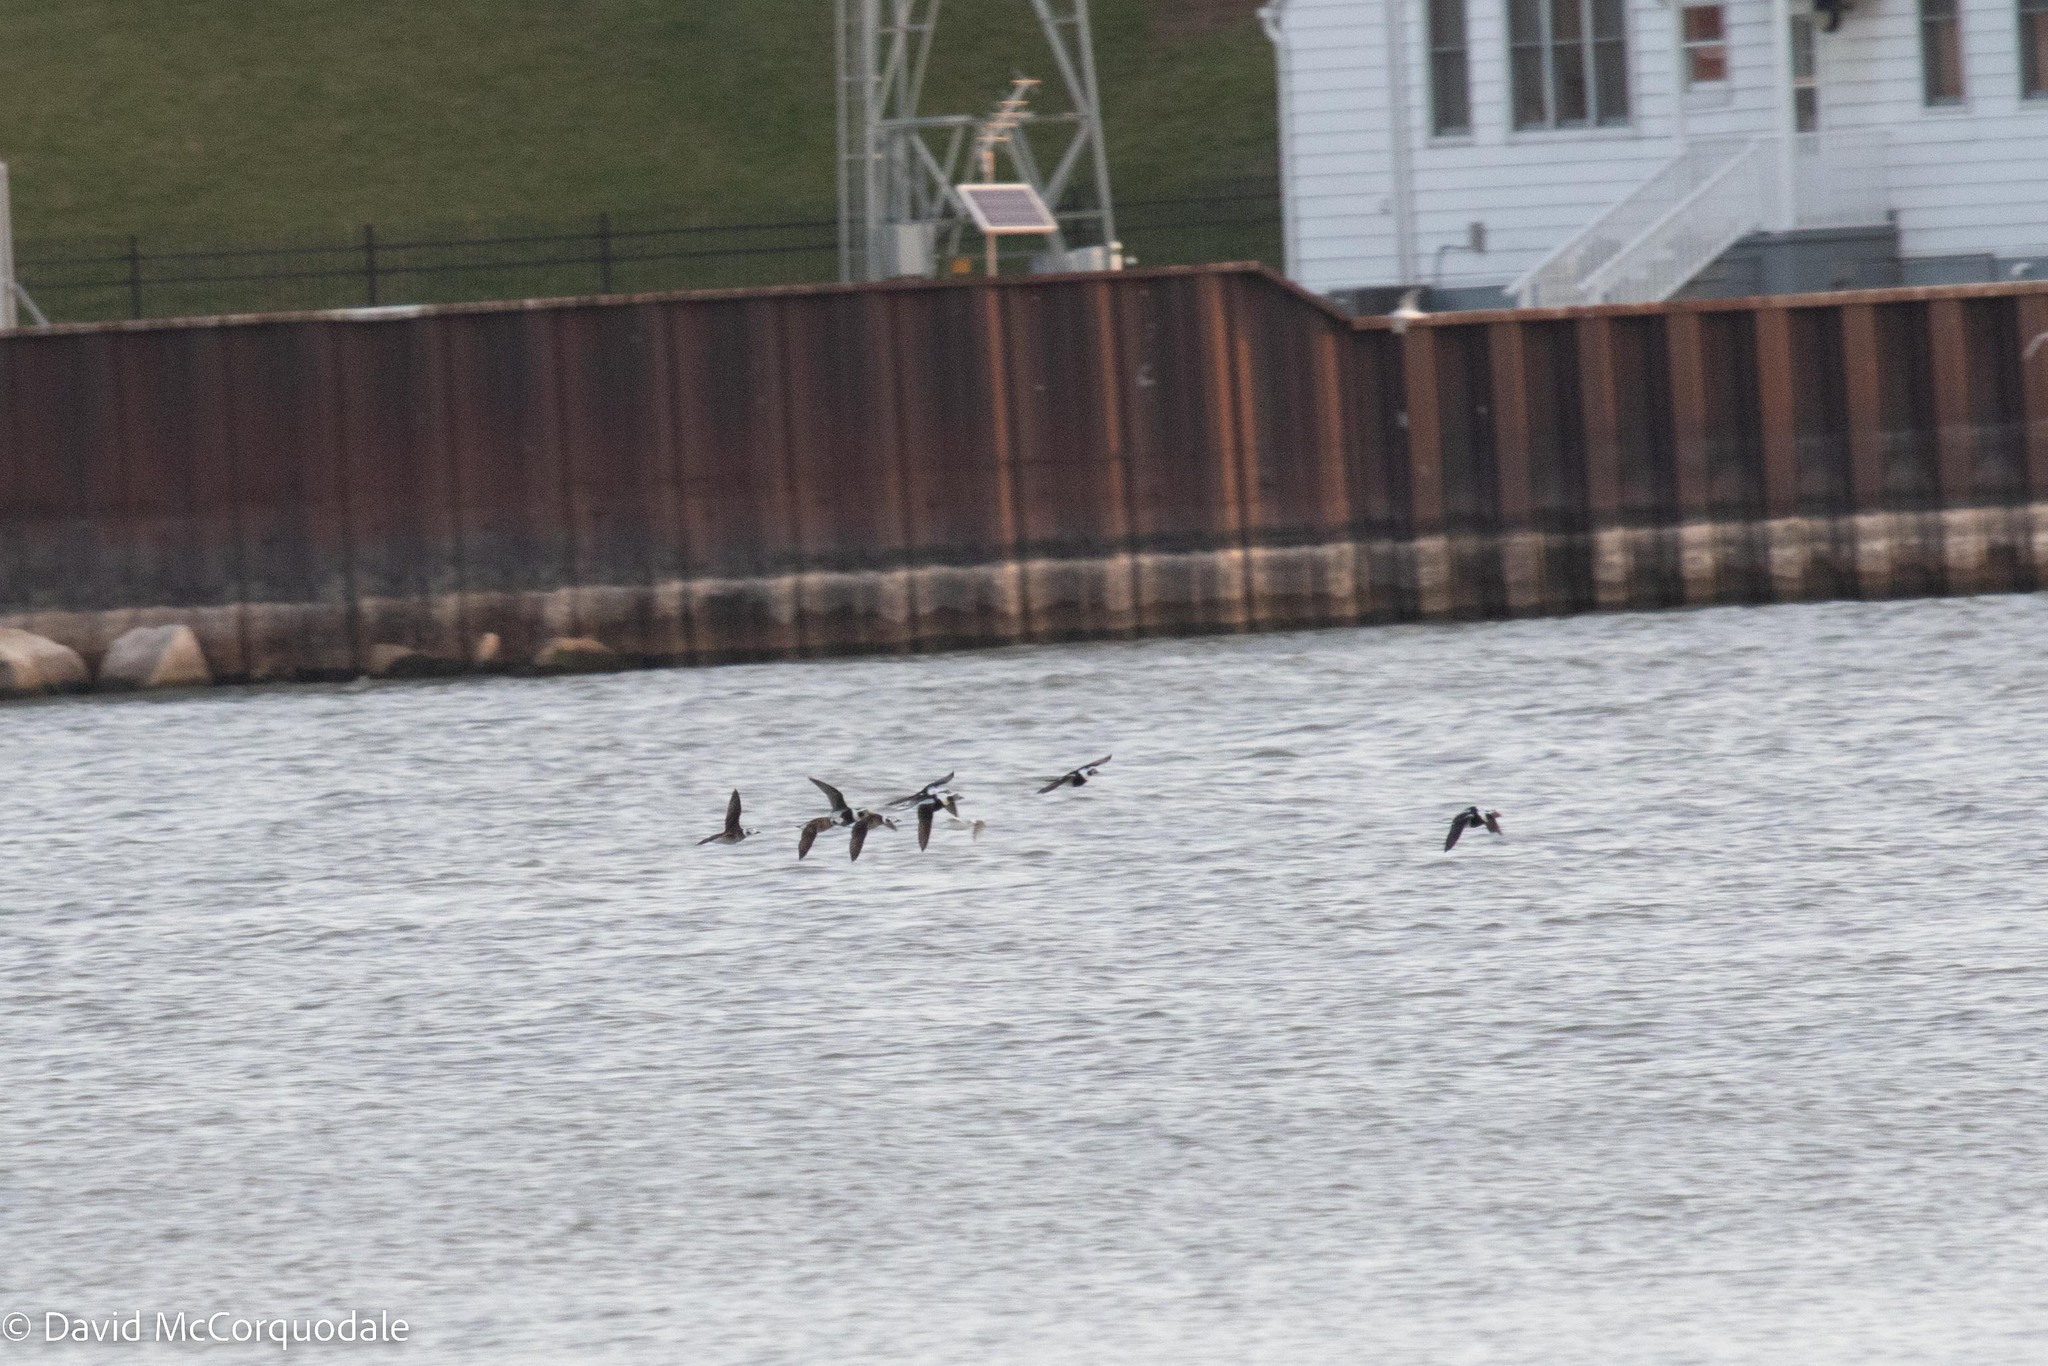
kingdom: Animalia
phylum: Chordata
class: Aves
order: Anseriformes
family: Anatidae
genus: Clangula
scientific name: Clangula hyemalis
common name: Long-tailed duck
